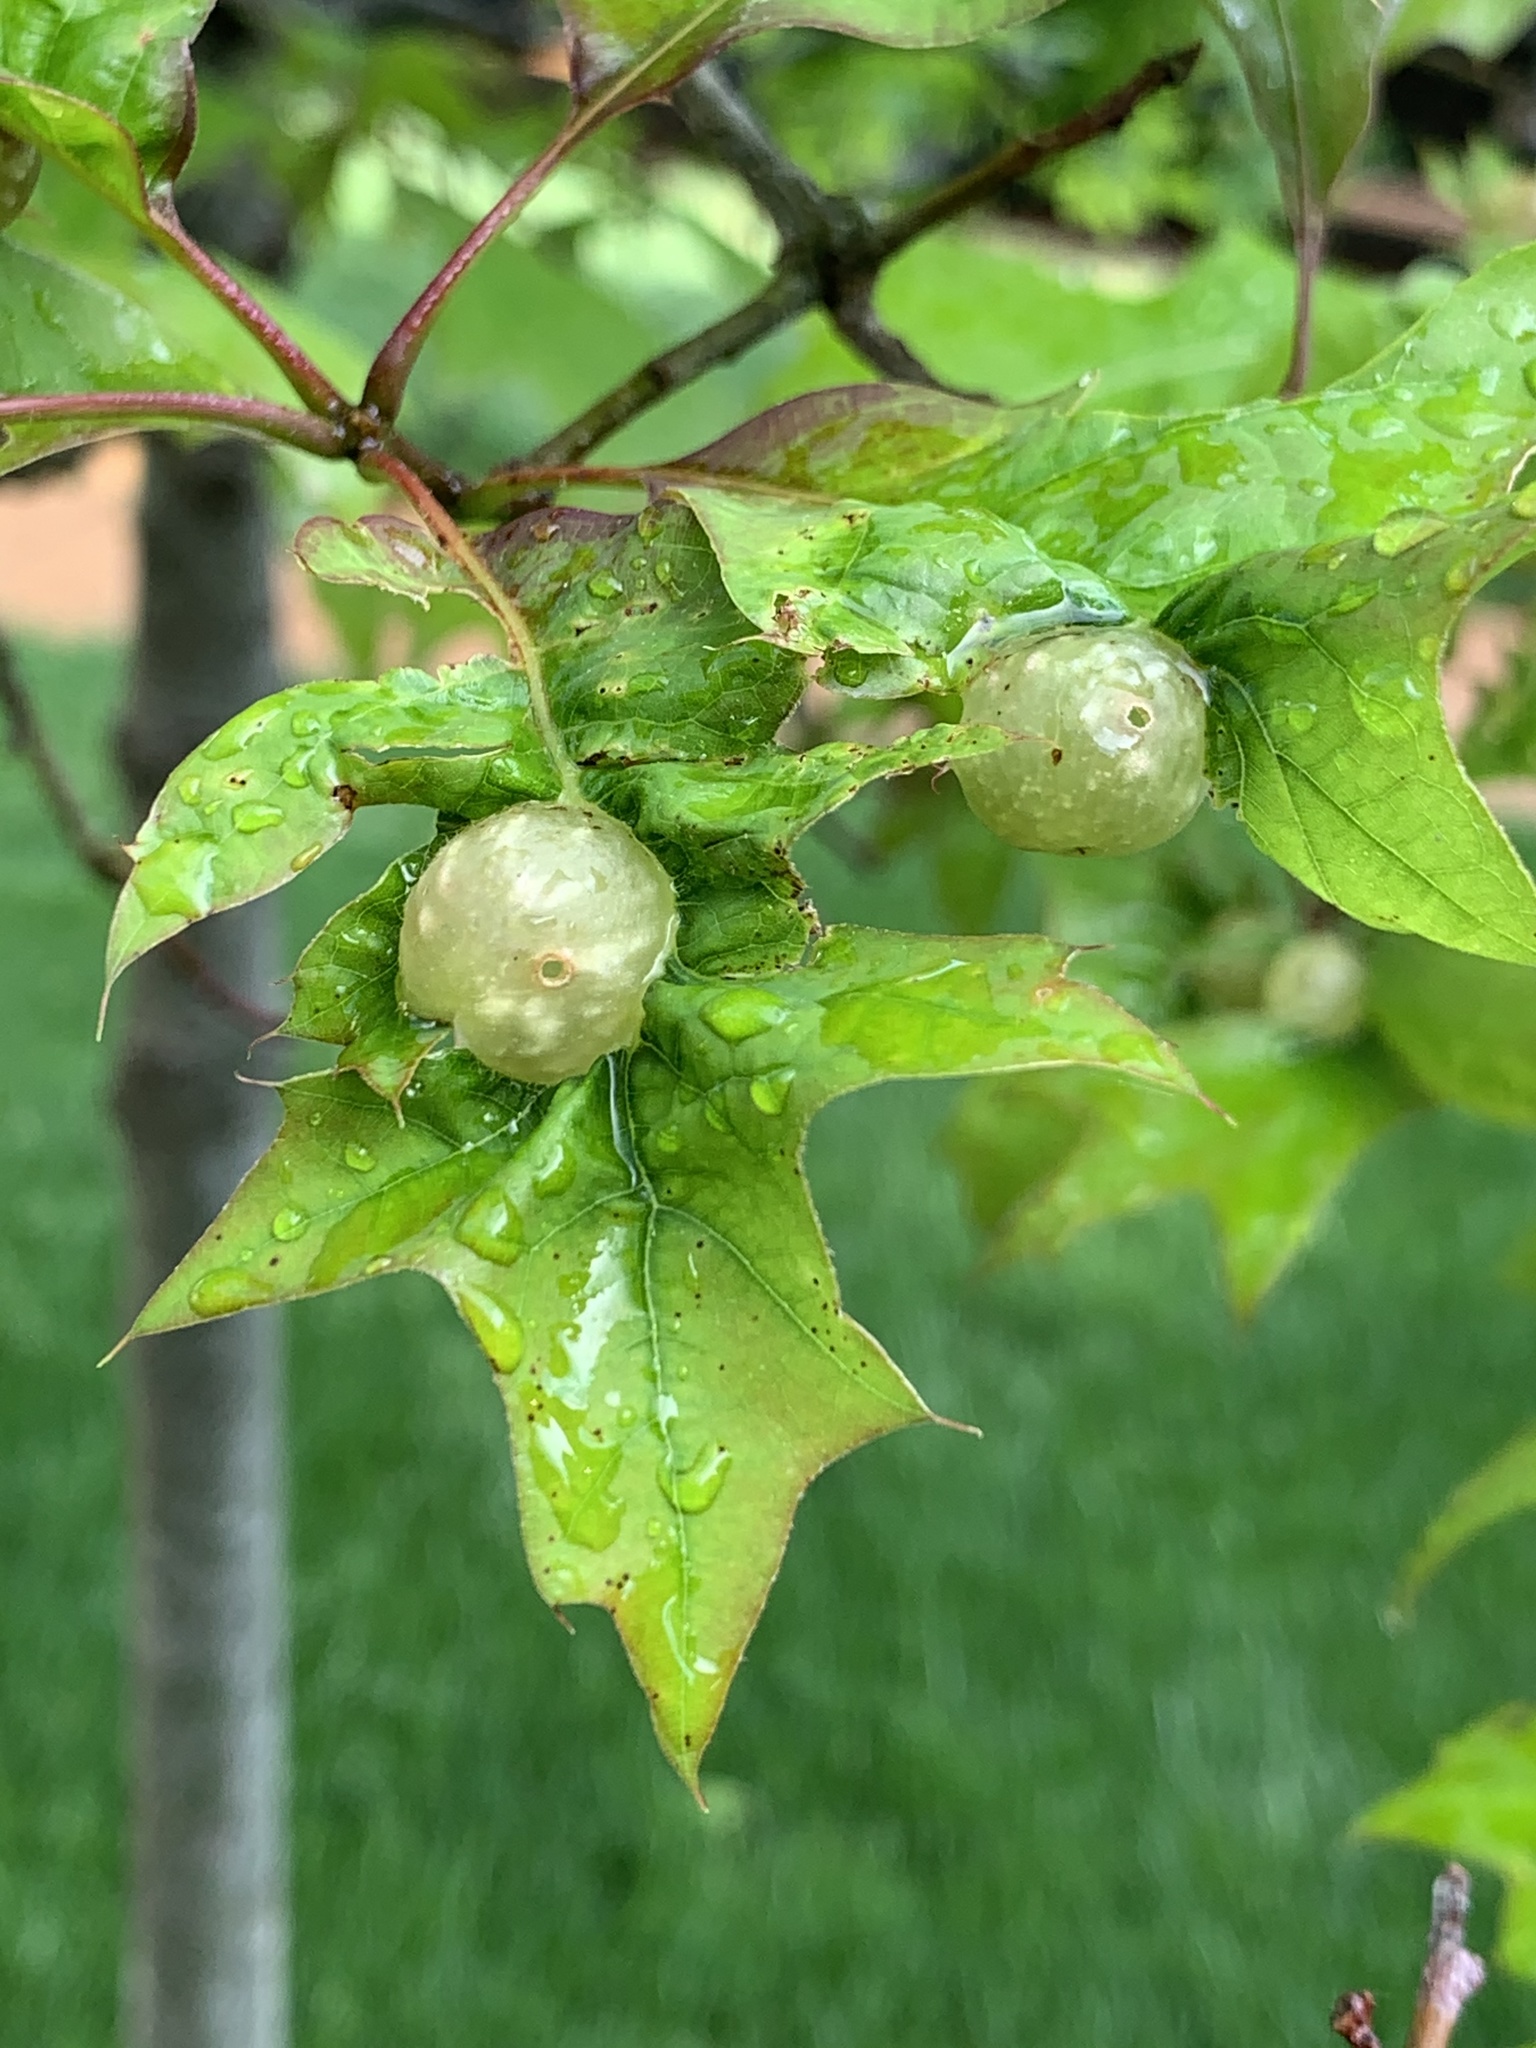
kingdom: Animalia
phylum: Arthropoda
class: Insecta
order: Hymenoptera
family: Cynipidae
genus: Dryocosmus
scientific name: Dryocosmus quercuspalustris
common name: Succulent oak gall wasp
